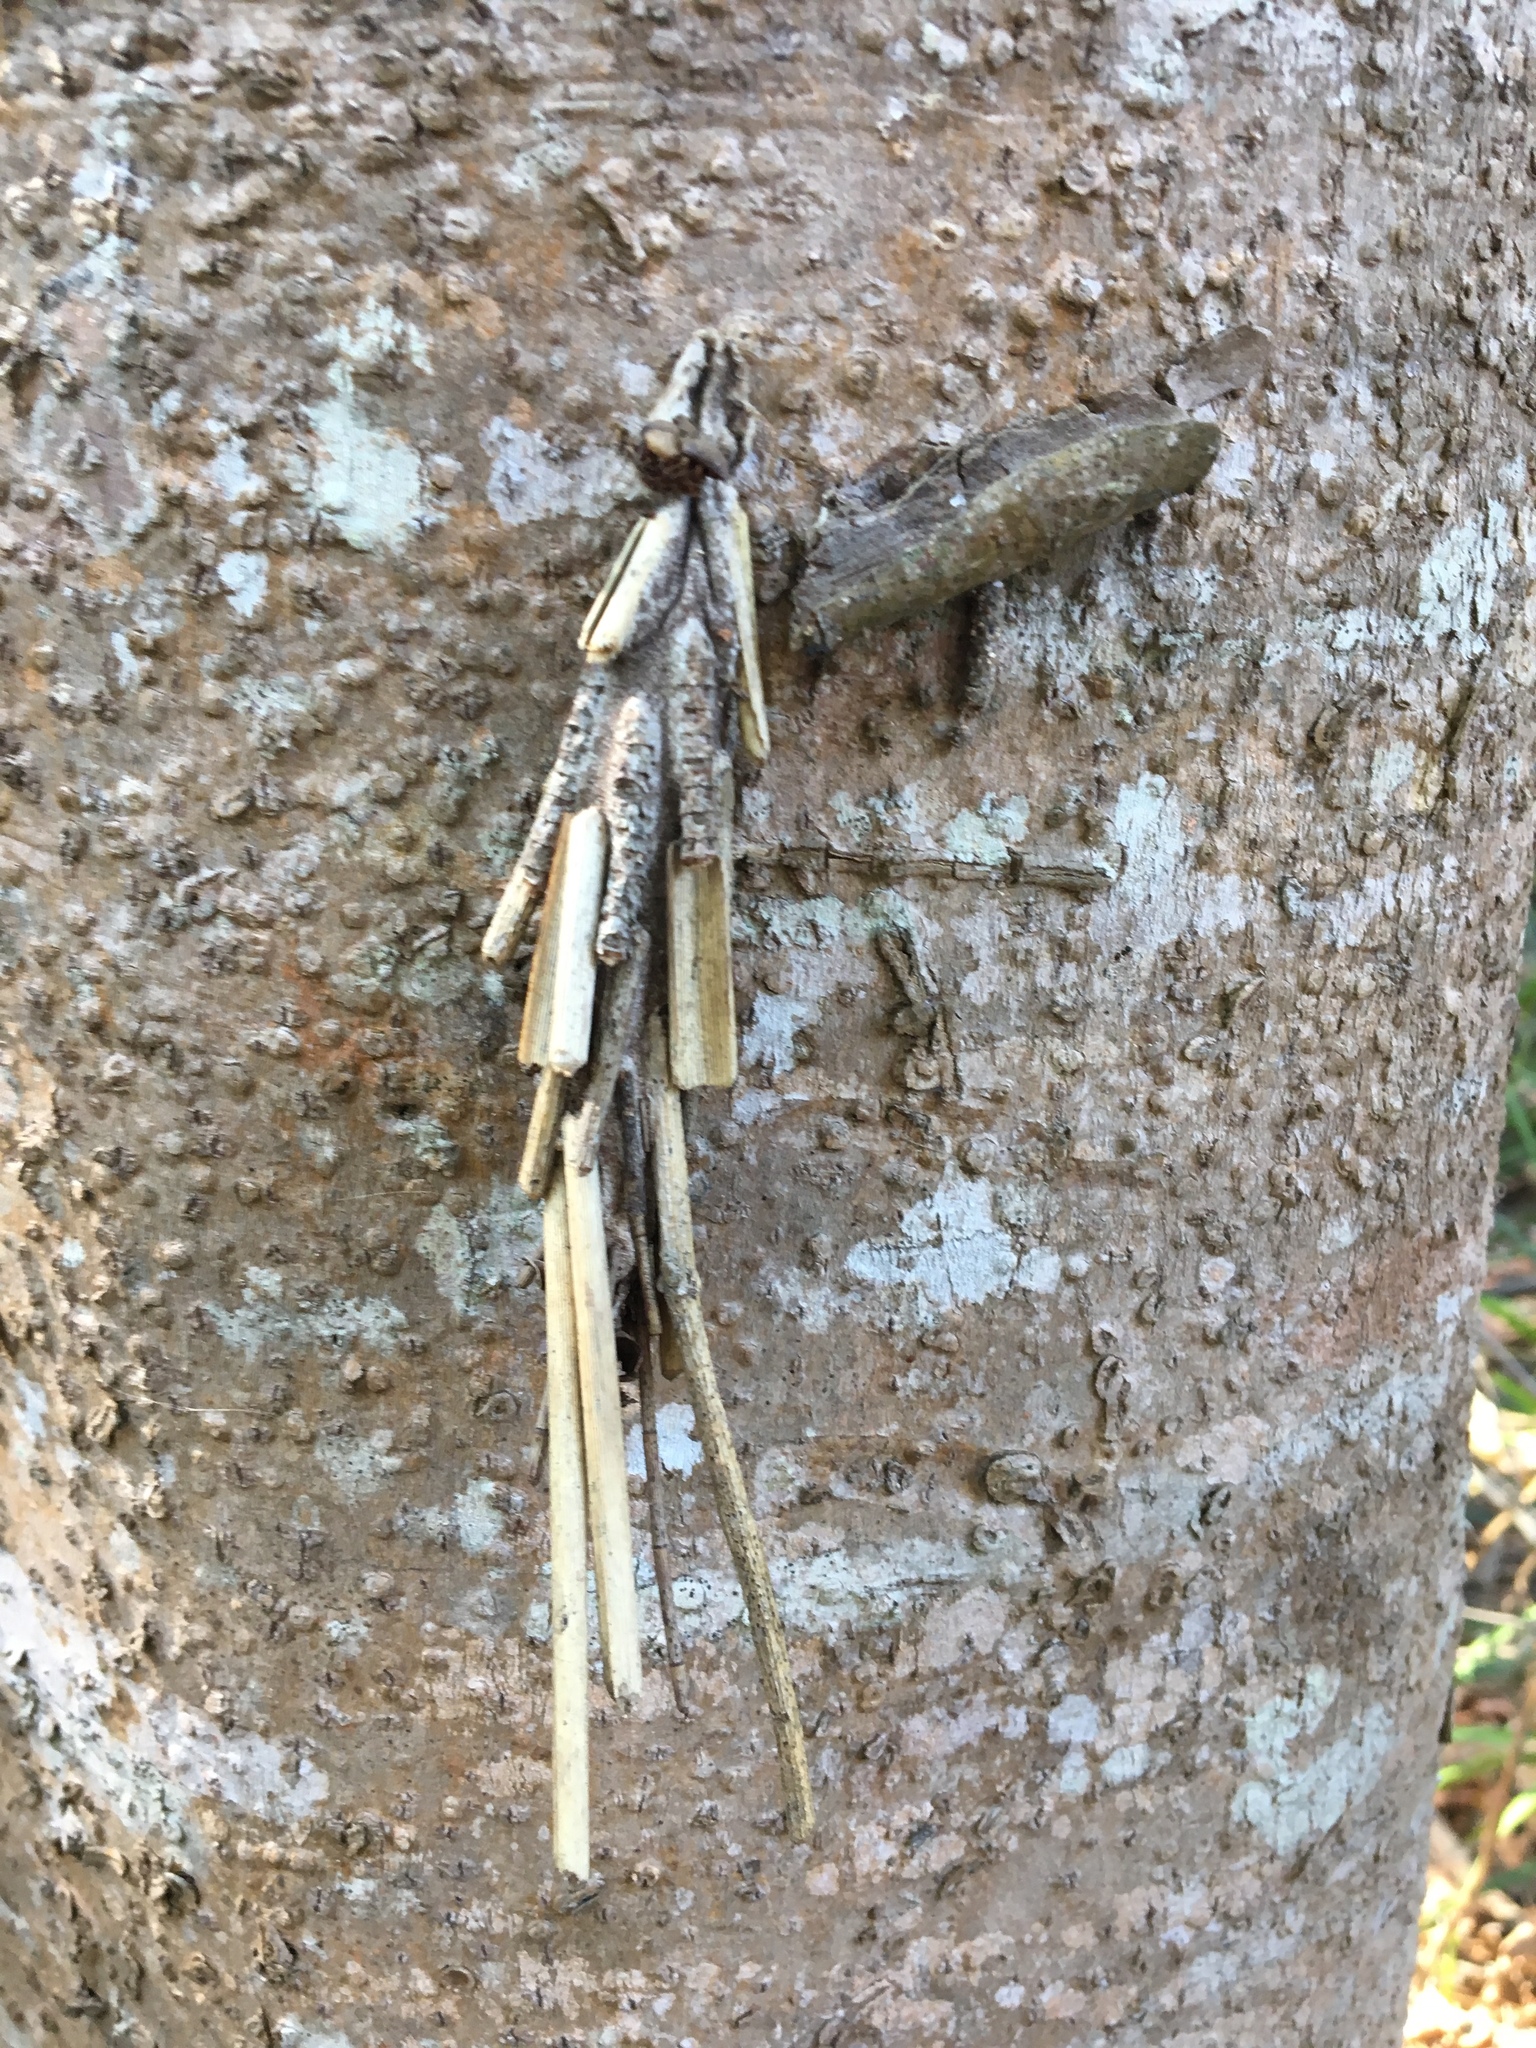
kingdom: Animalia
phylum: Arthropoda
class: Insecta
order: Lepidoptera
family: Psychidae
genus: Metura
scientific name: Metura elongatus
